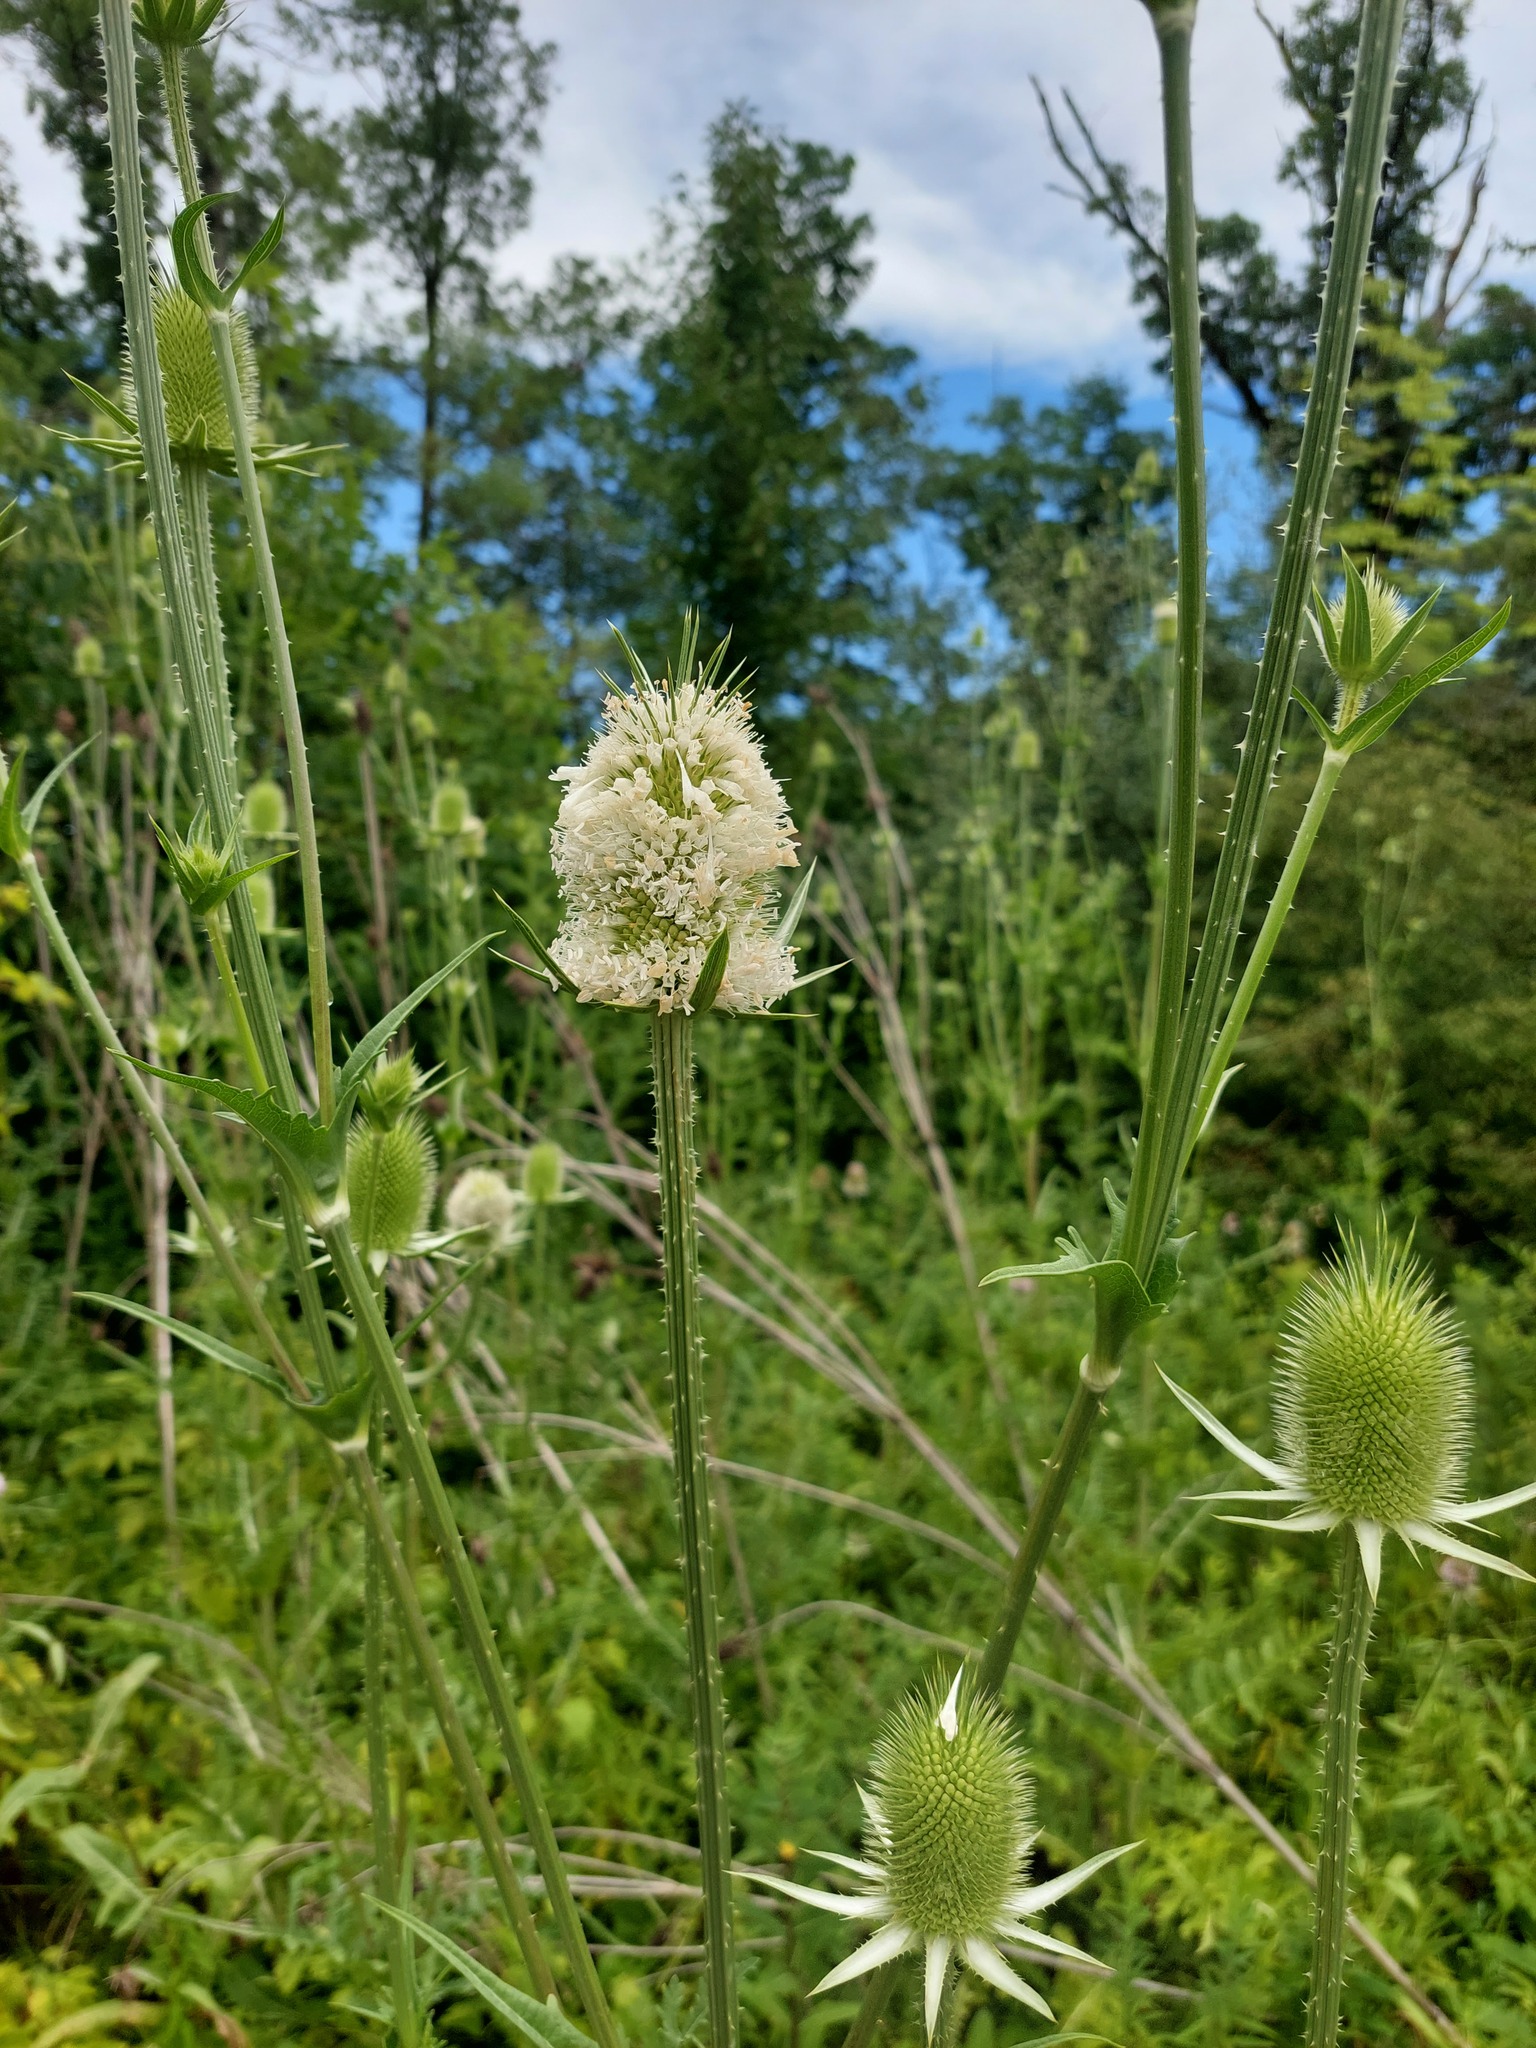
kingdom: Plantae
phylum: Tracheophyta
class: Magnoliopsida
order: Dipsacales
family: Caprifoliaceae
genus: Dipsacus
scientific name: Dipsacus laciniatus
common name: Cut-leaved teasel
